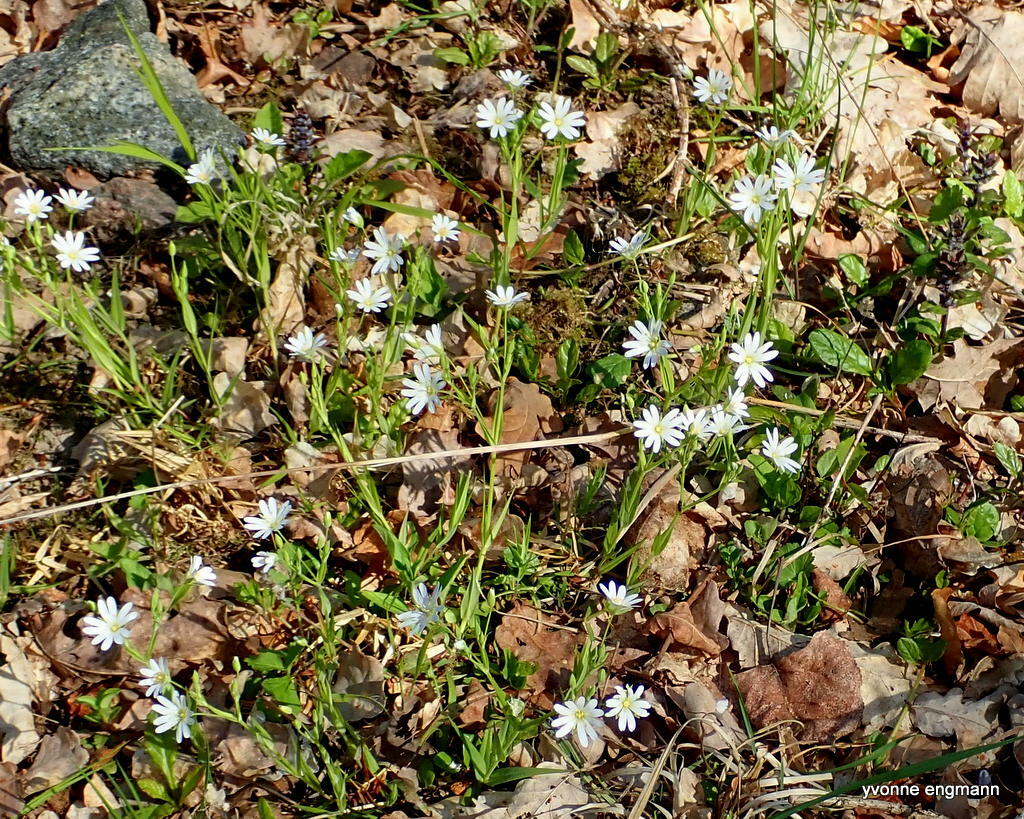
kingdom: Plantae
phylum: Tracheophyta
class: Magnoliopsida
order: Caryophyllales
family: Caryophyllaceae
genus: Rabelera
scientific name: Rabelera holostea
